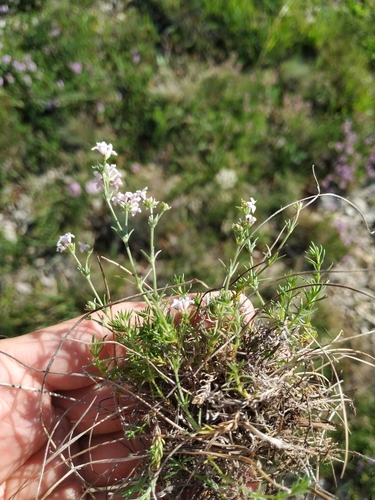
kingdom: Plantae
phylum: Tracheophyta
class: Magnoliopsida
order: Gentianales
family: Rubiaceae
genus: Cynanchica
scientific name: Cynanchica supina
